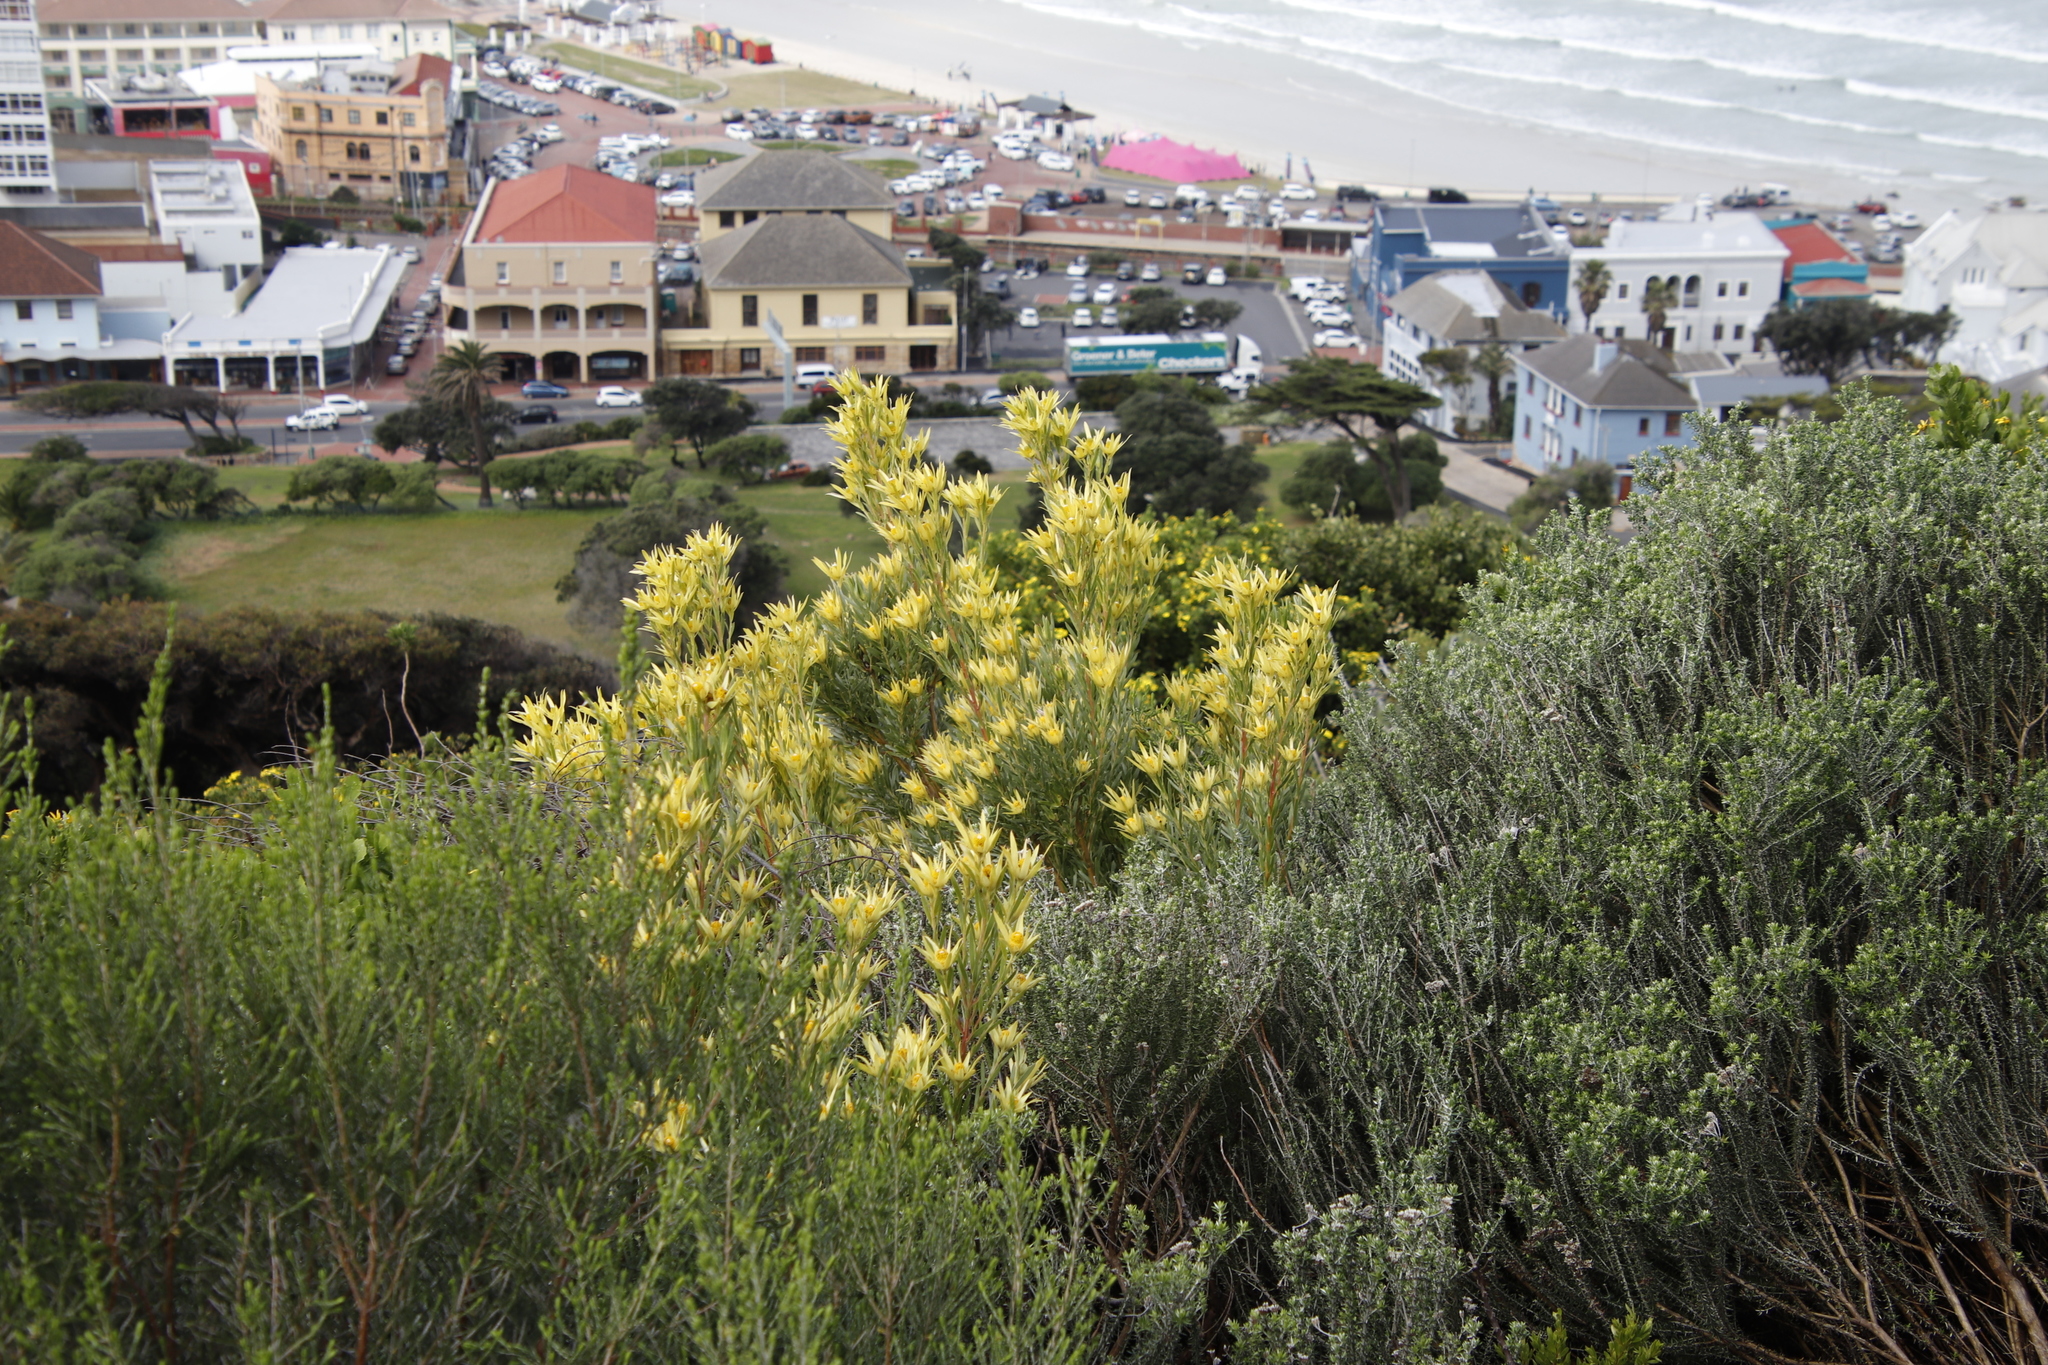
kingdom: Plantae
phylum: Tracheophyta
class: Magnoliopsida
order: Proteales
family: Proteaceae
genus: Leucadendron
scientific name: Leucadendron xanthoconus
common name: Sickle-leaf conebush
